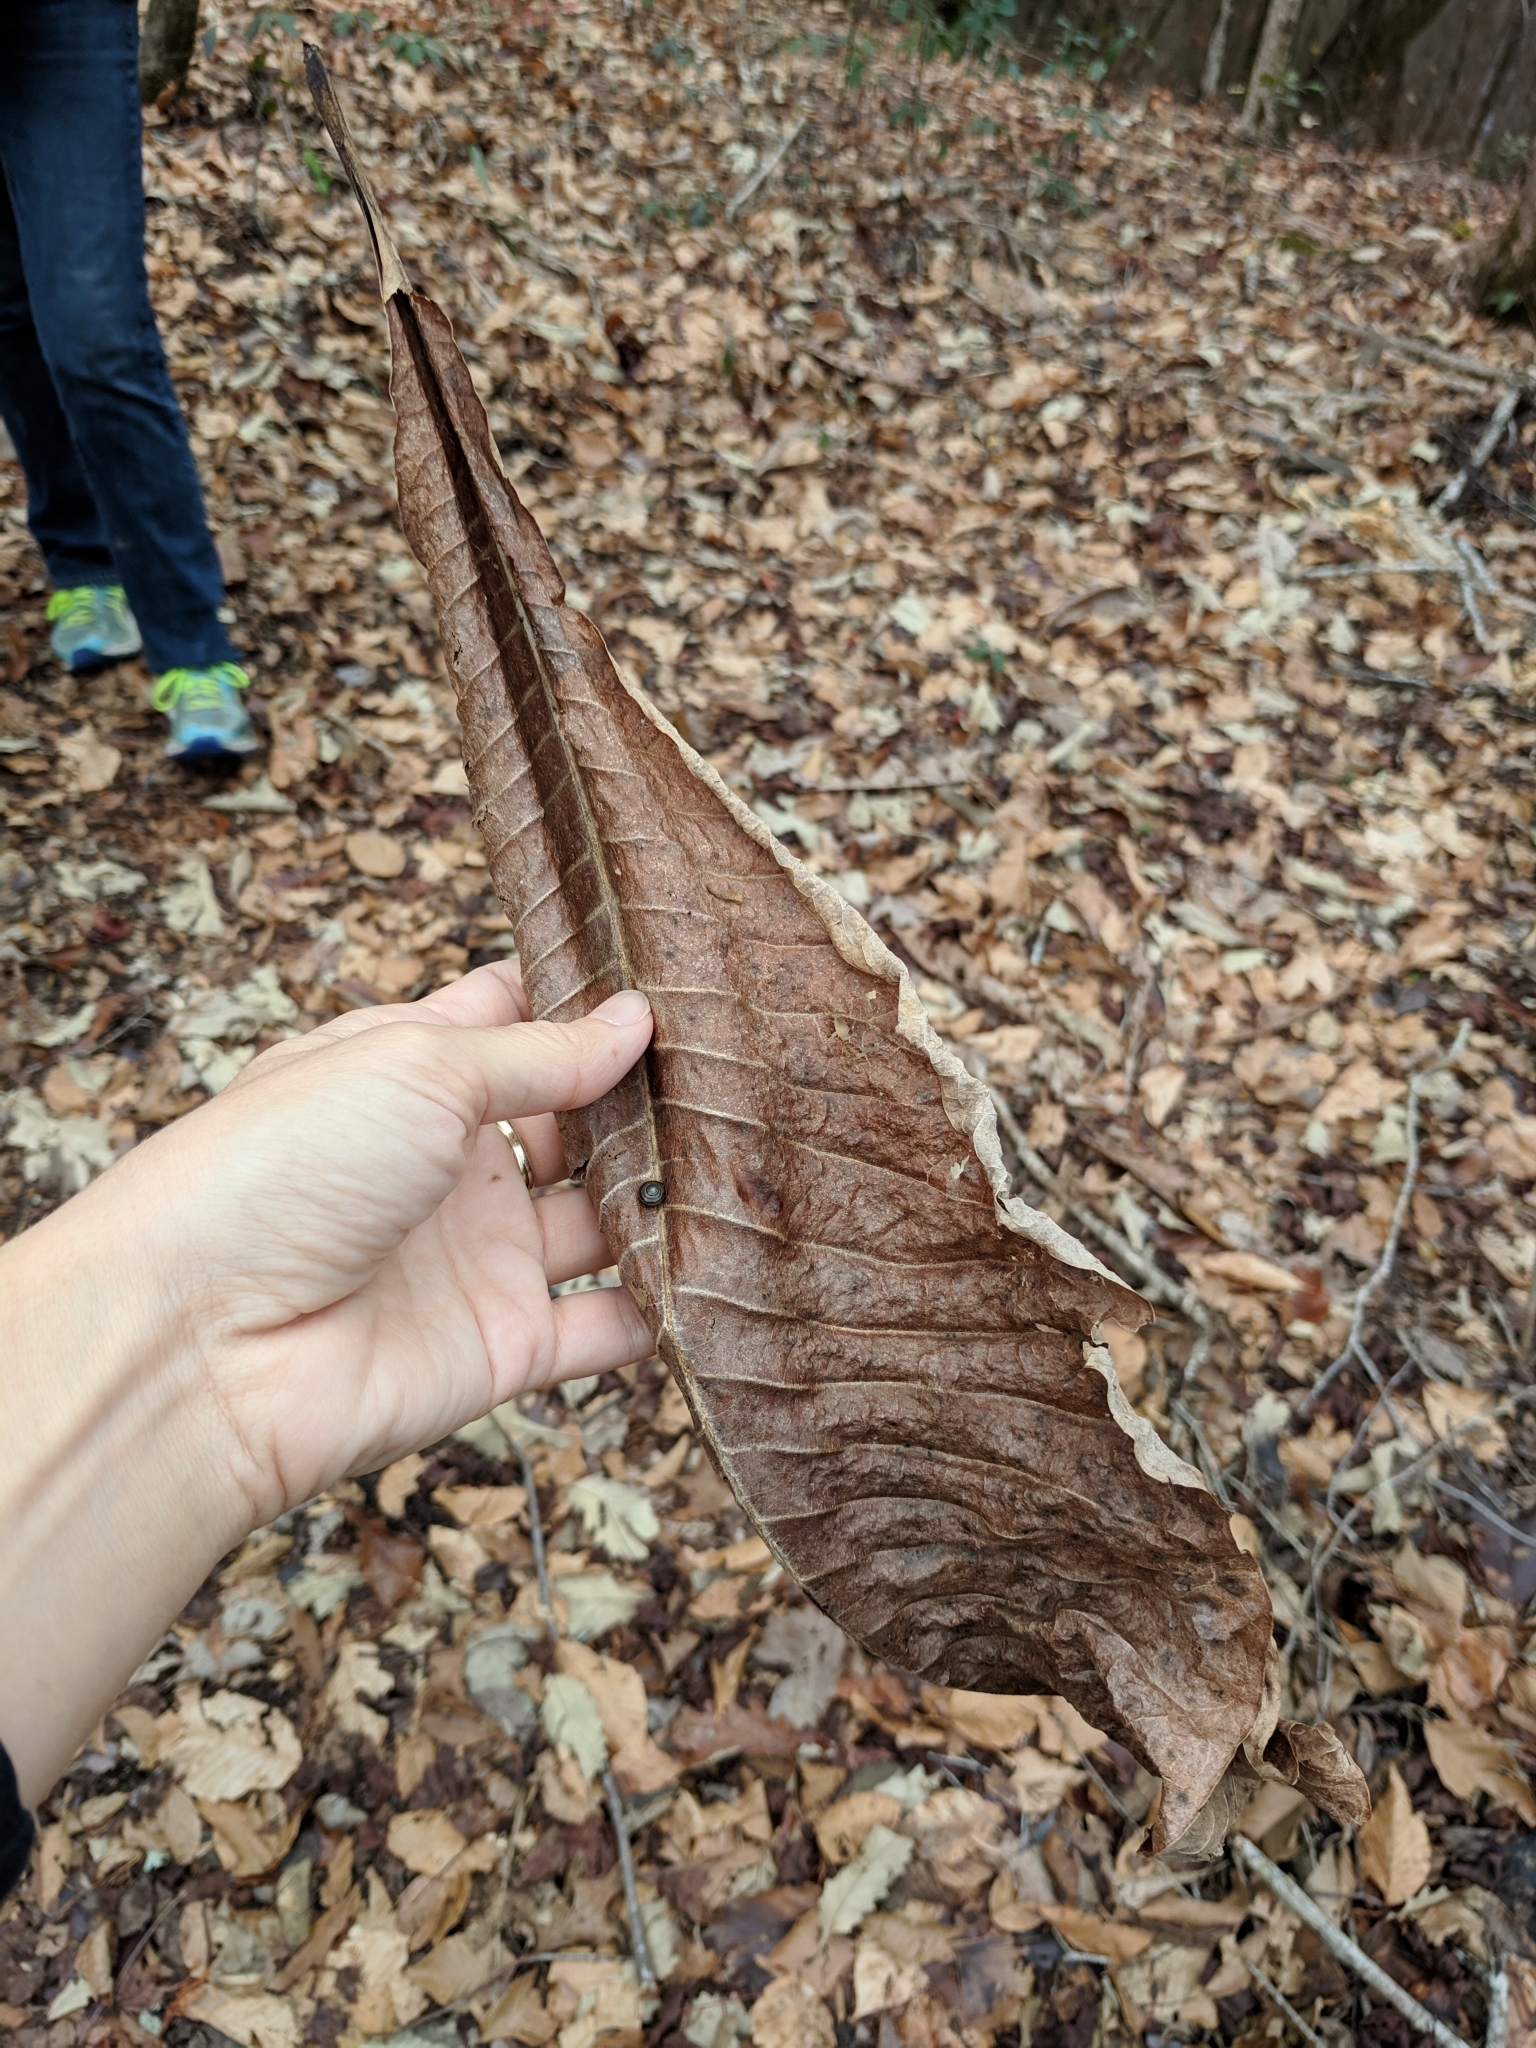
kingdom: Plantae
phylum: Tracheophyta
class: Magnoliopsida
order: Magnoliales
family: Magnoliaceae
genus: Magnolia
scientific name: Magnolia tripetala
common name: Umbrella magnolia
